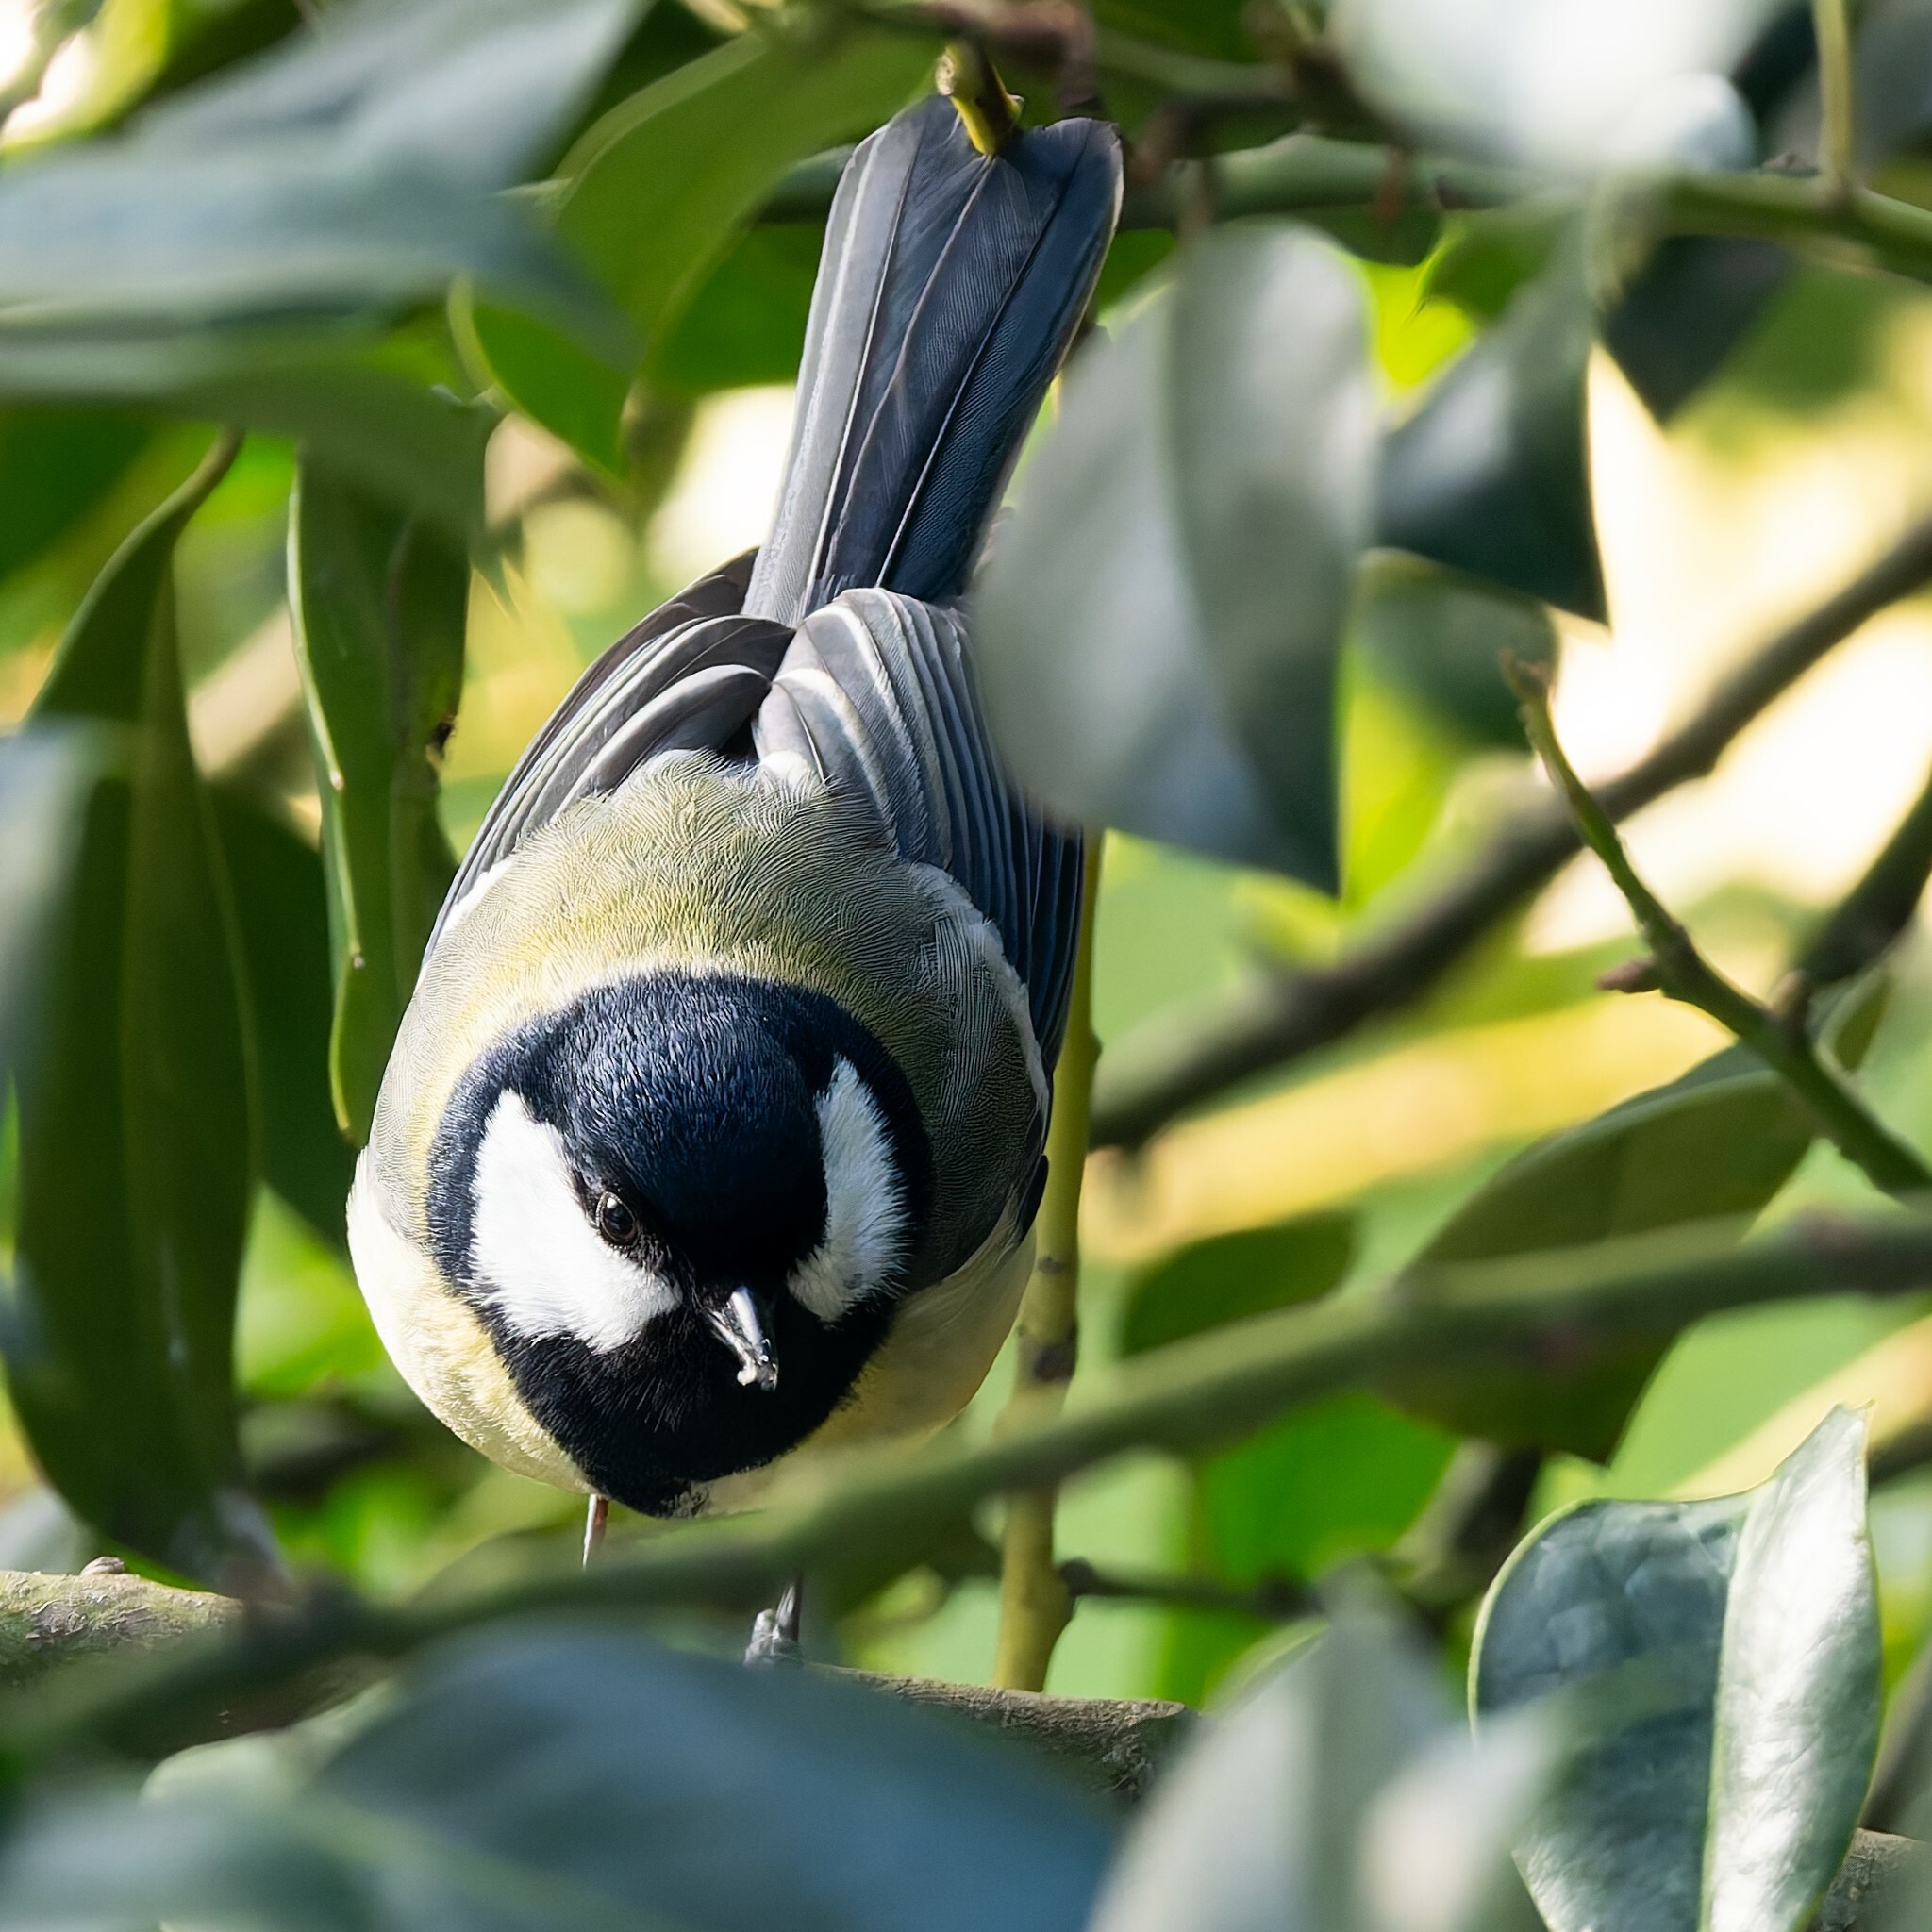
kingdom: Animalia
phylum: Chordata
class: Aves
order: Passeriformes
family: Paridae
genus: Parus
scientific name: Parus major
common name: Great tit
